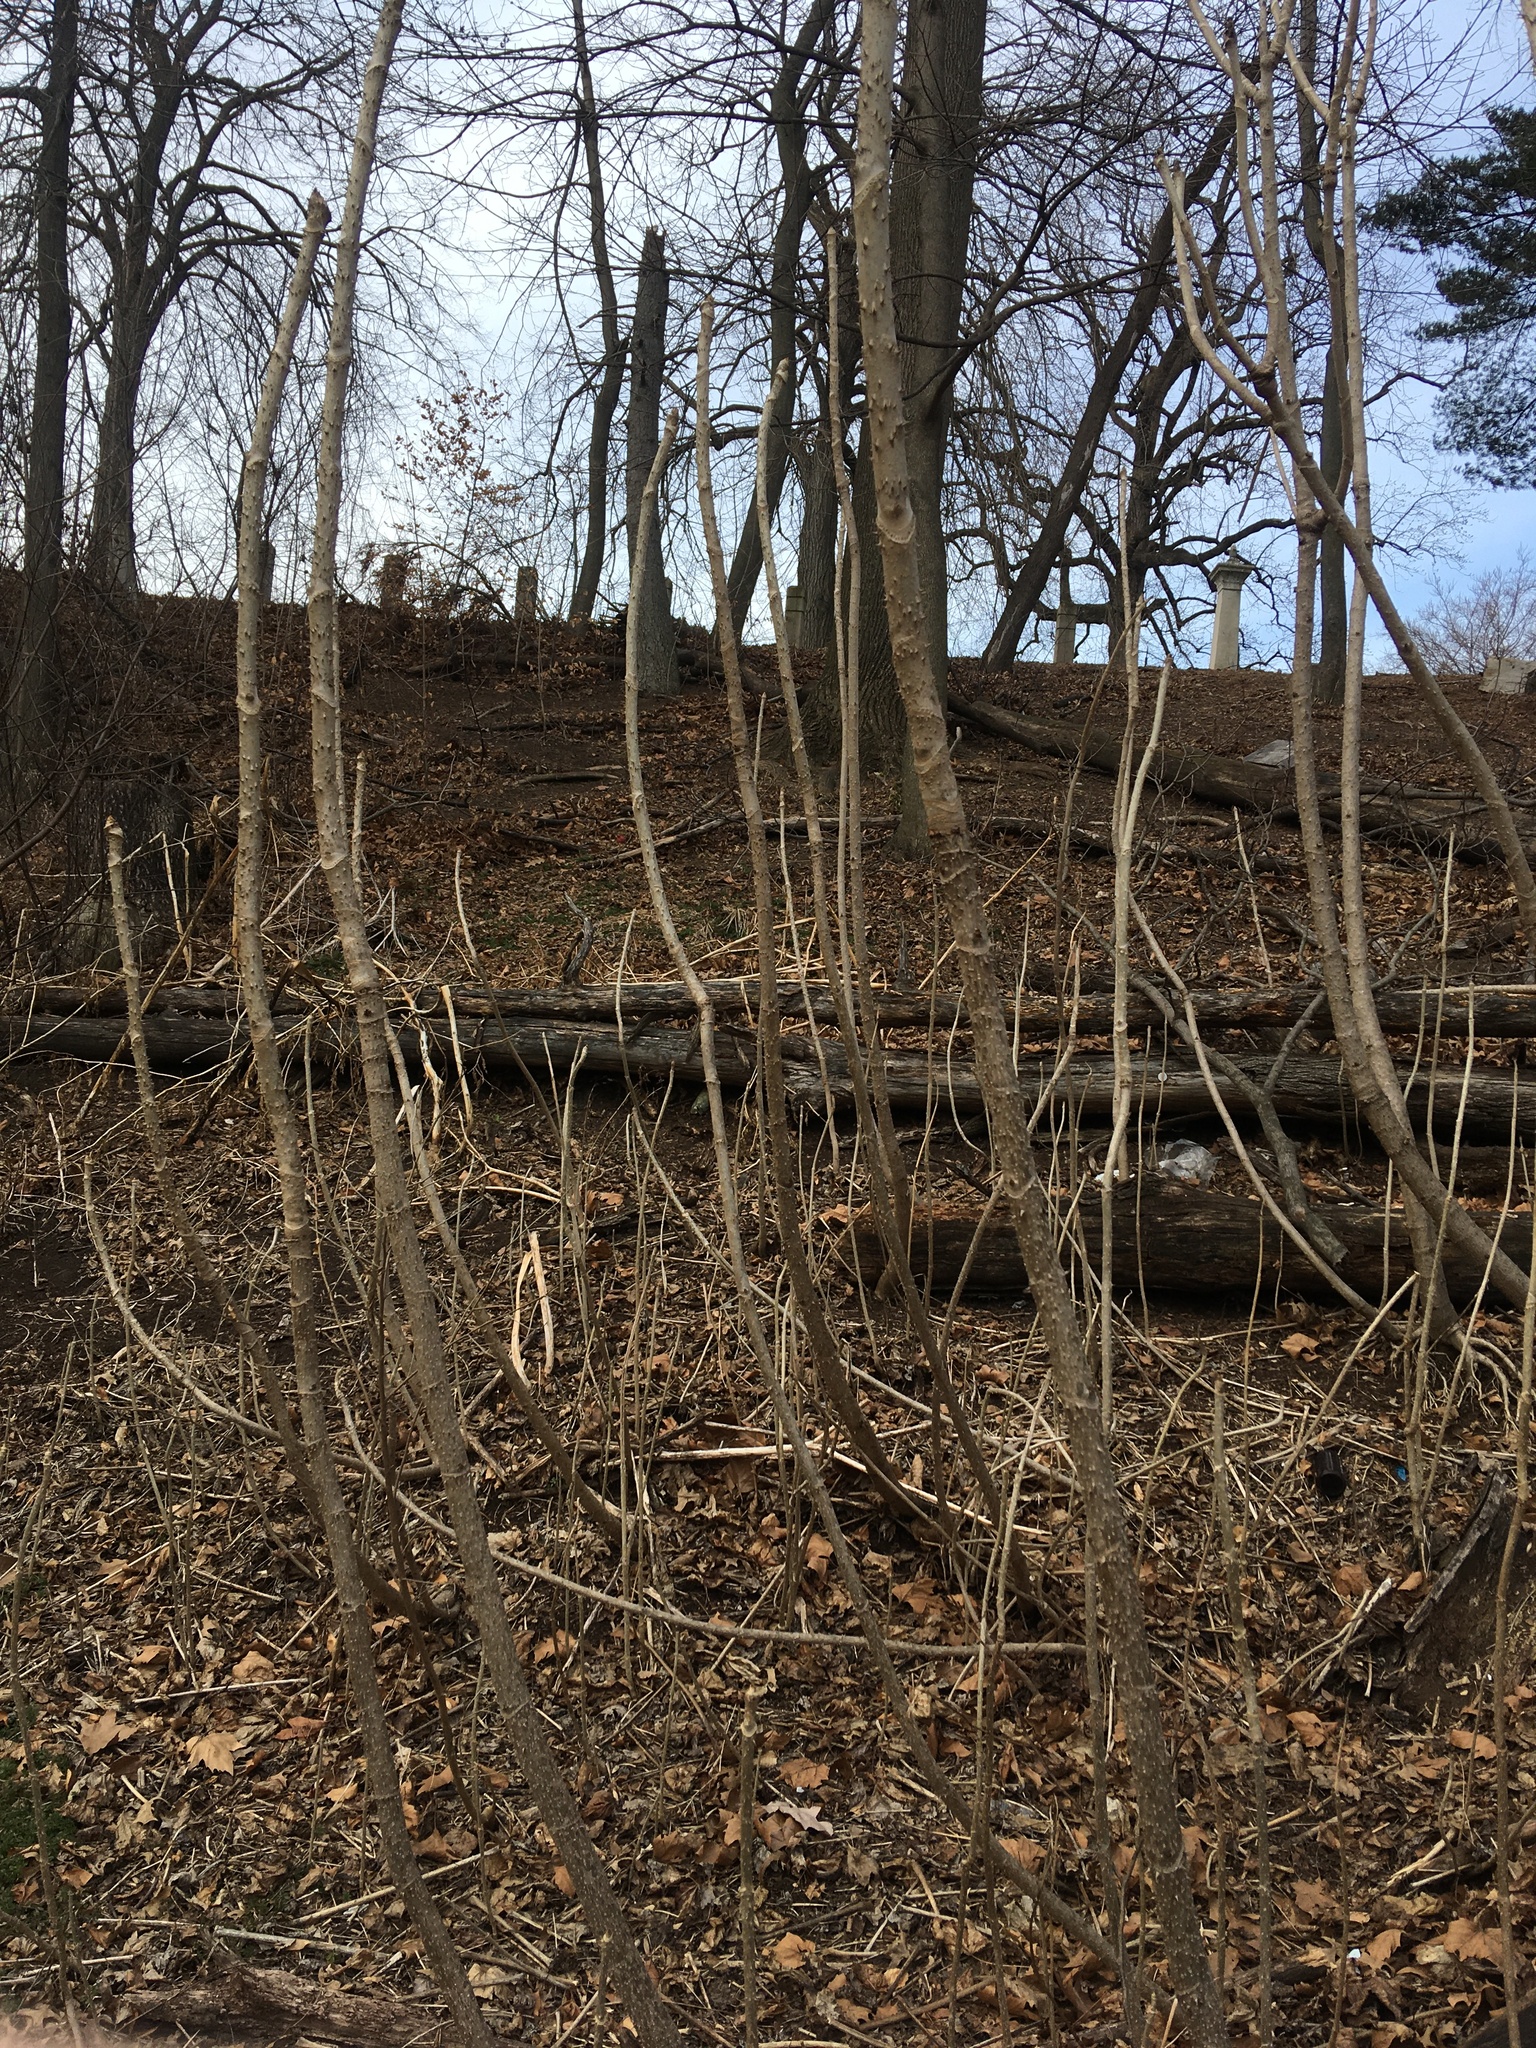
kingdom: Plantae
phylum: Tracheophyta
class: Magnoliopsida
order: Apiales
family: Araliaceae
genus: Aralia
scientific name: Aralia elata
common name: Japanese angelica-tree
